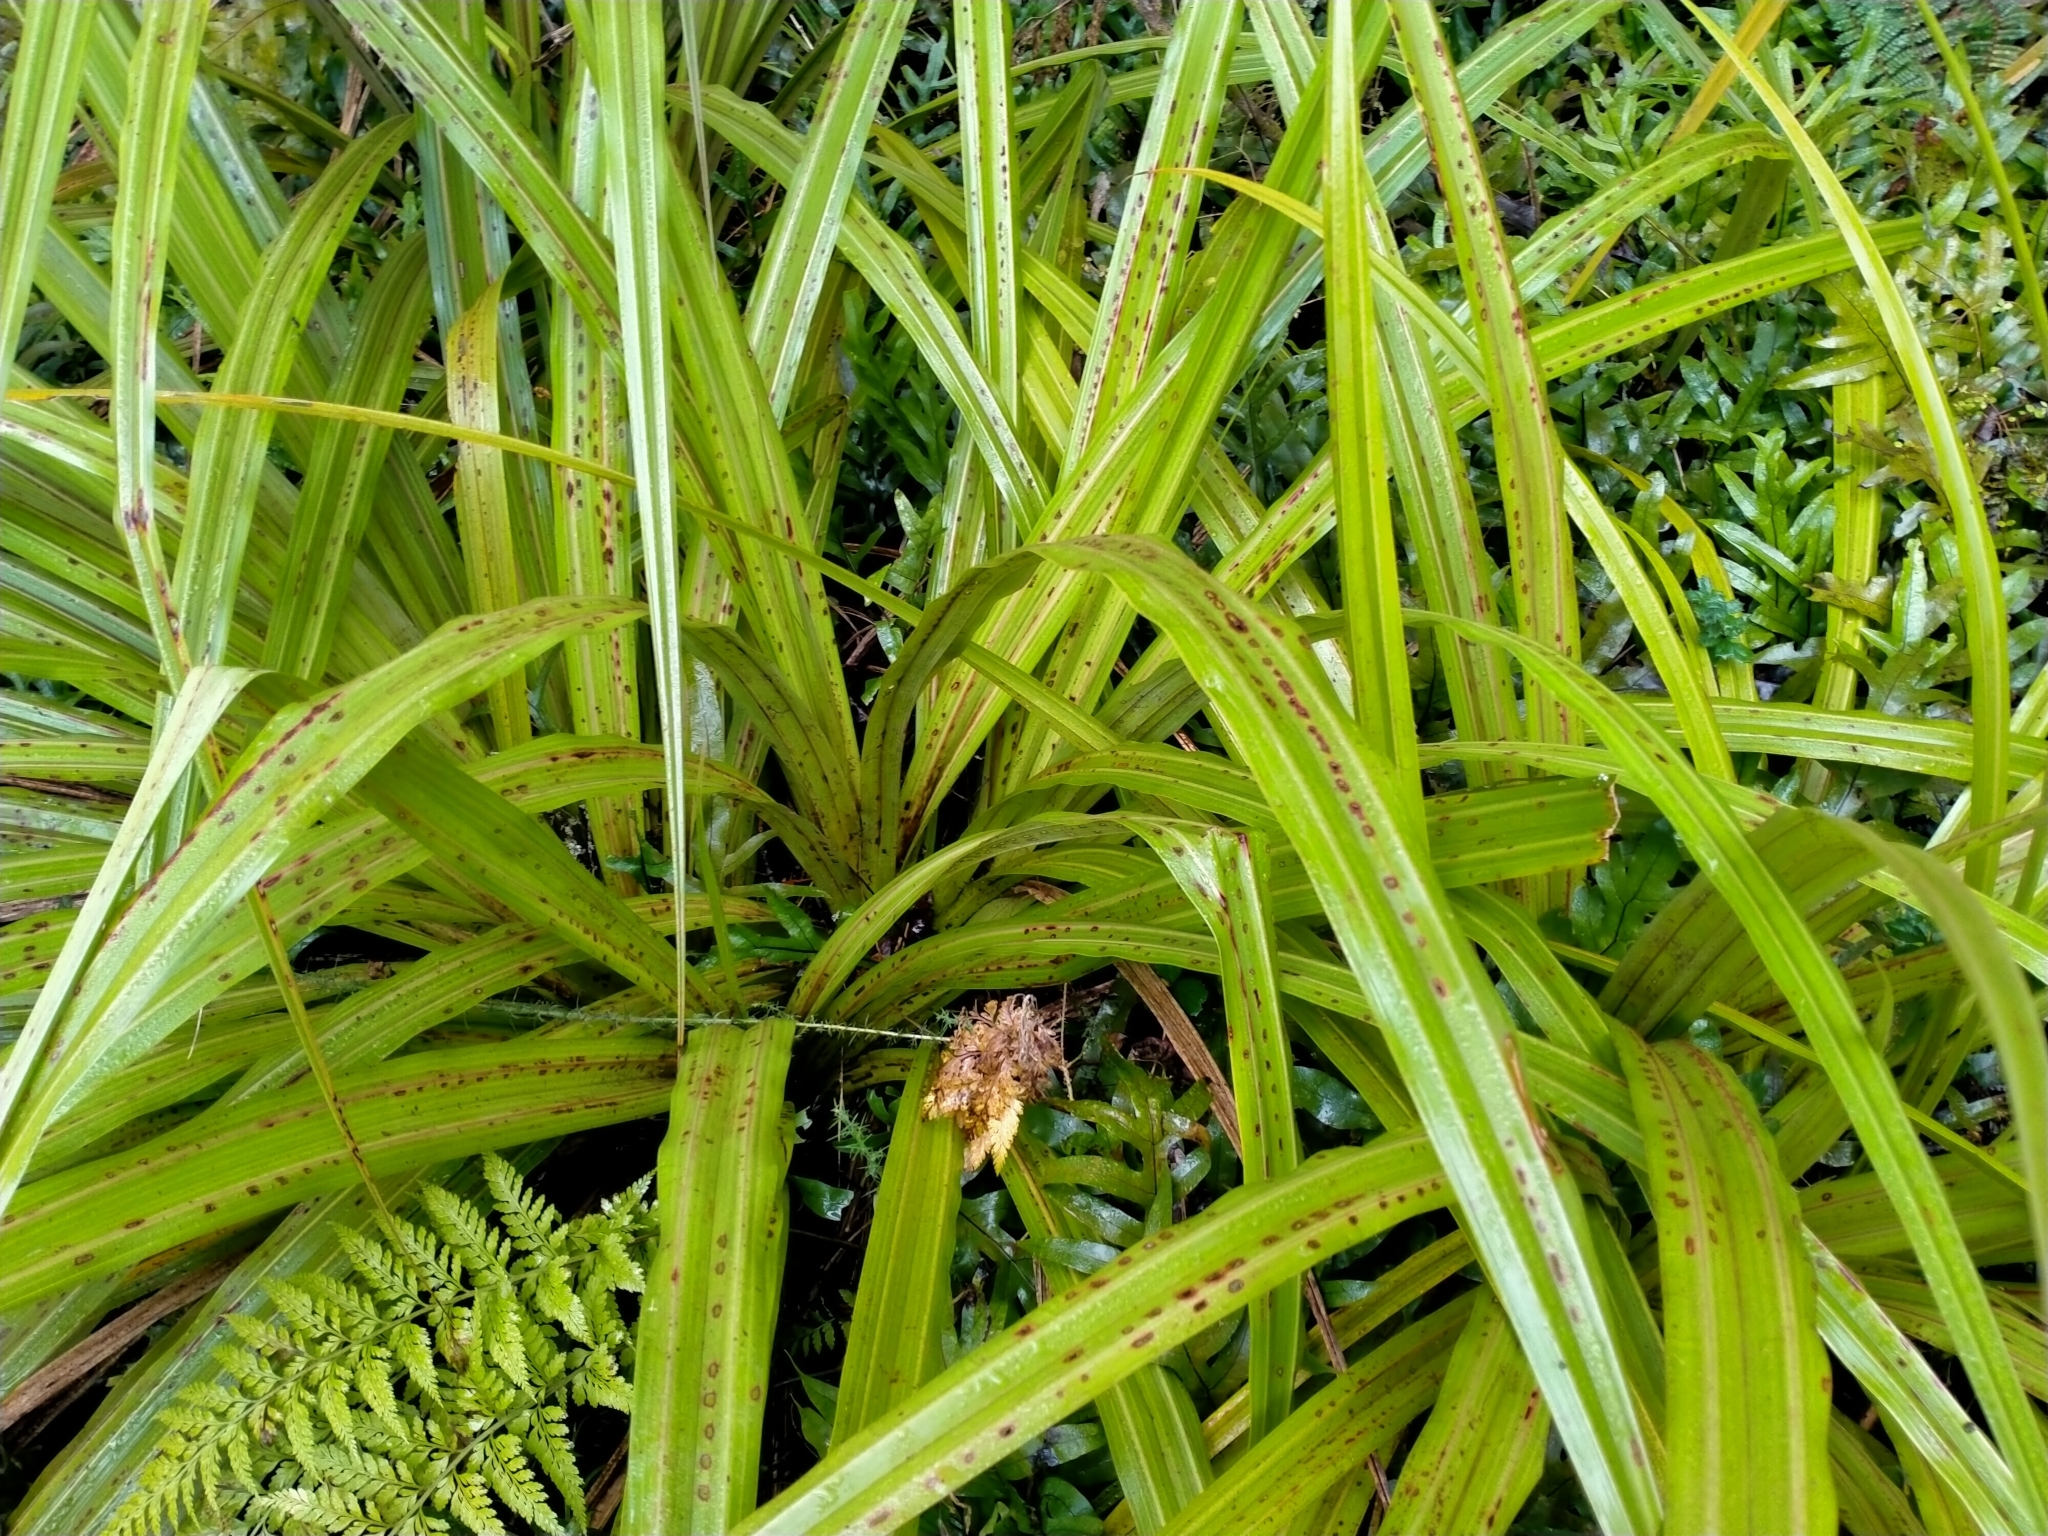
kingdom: Plantae
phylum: Tracheophyta
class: Liliopsida
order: Asparagales
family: Asteliaceae
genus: Astelia
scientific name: Astelia fragrans
